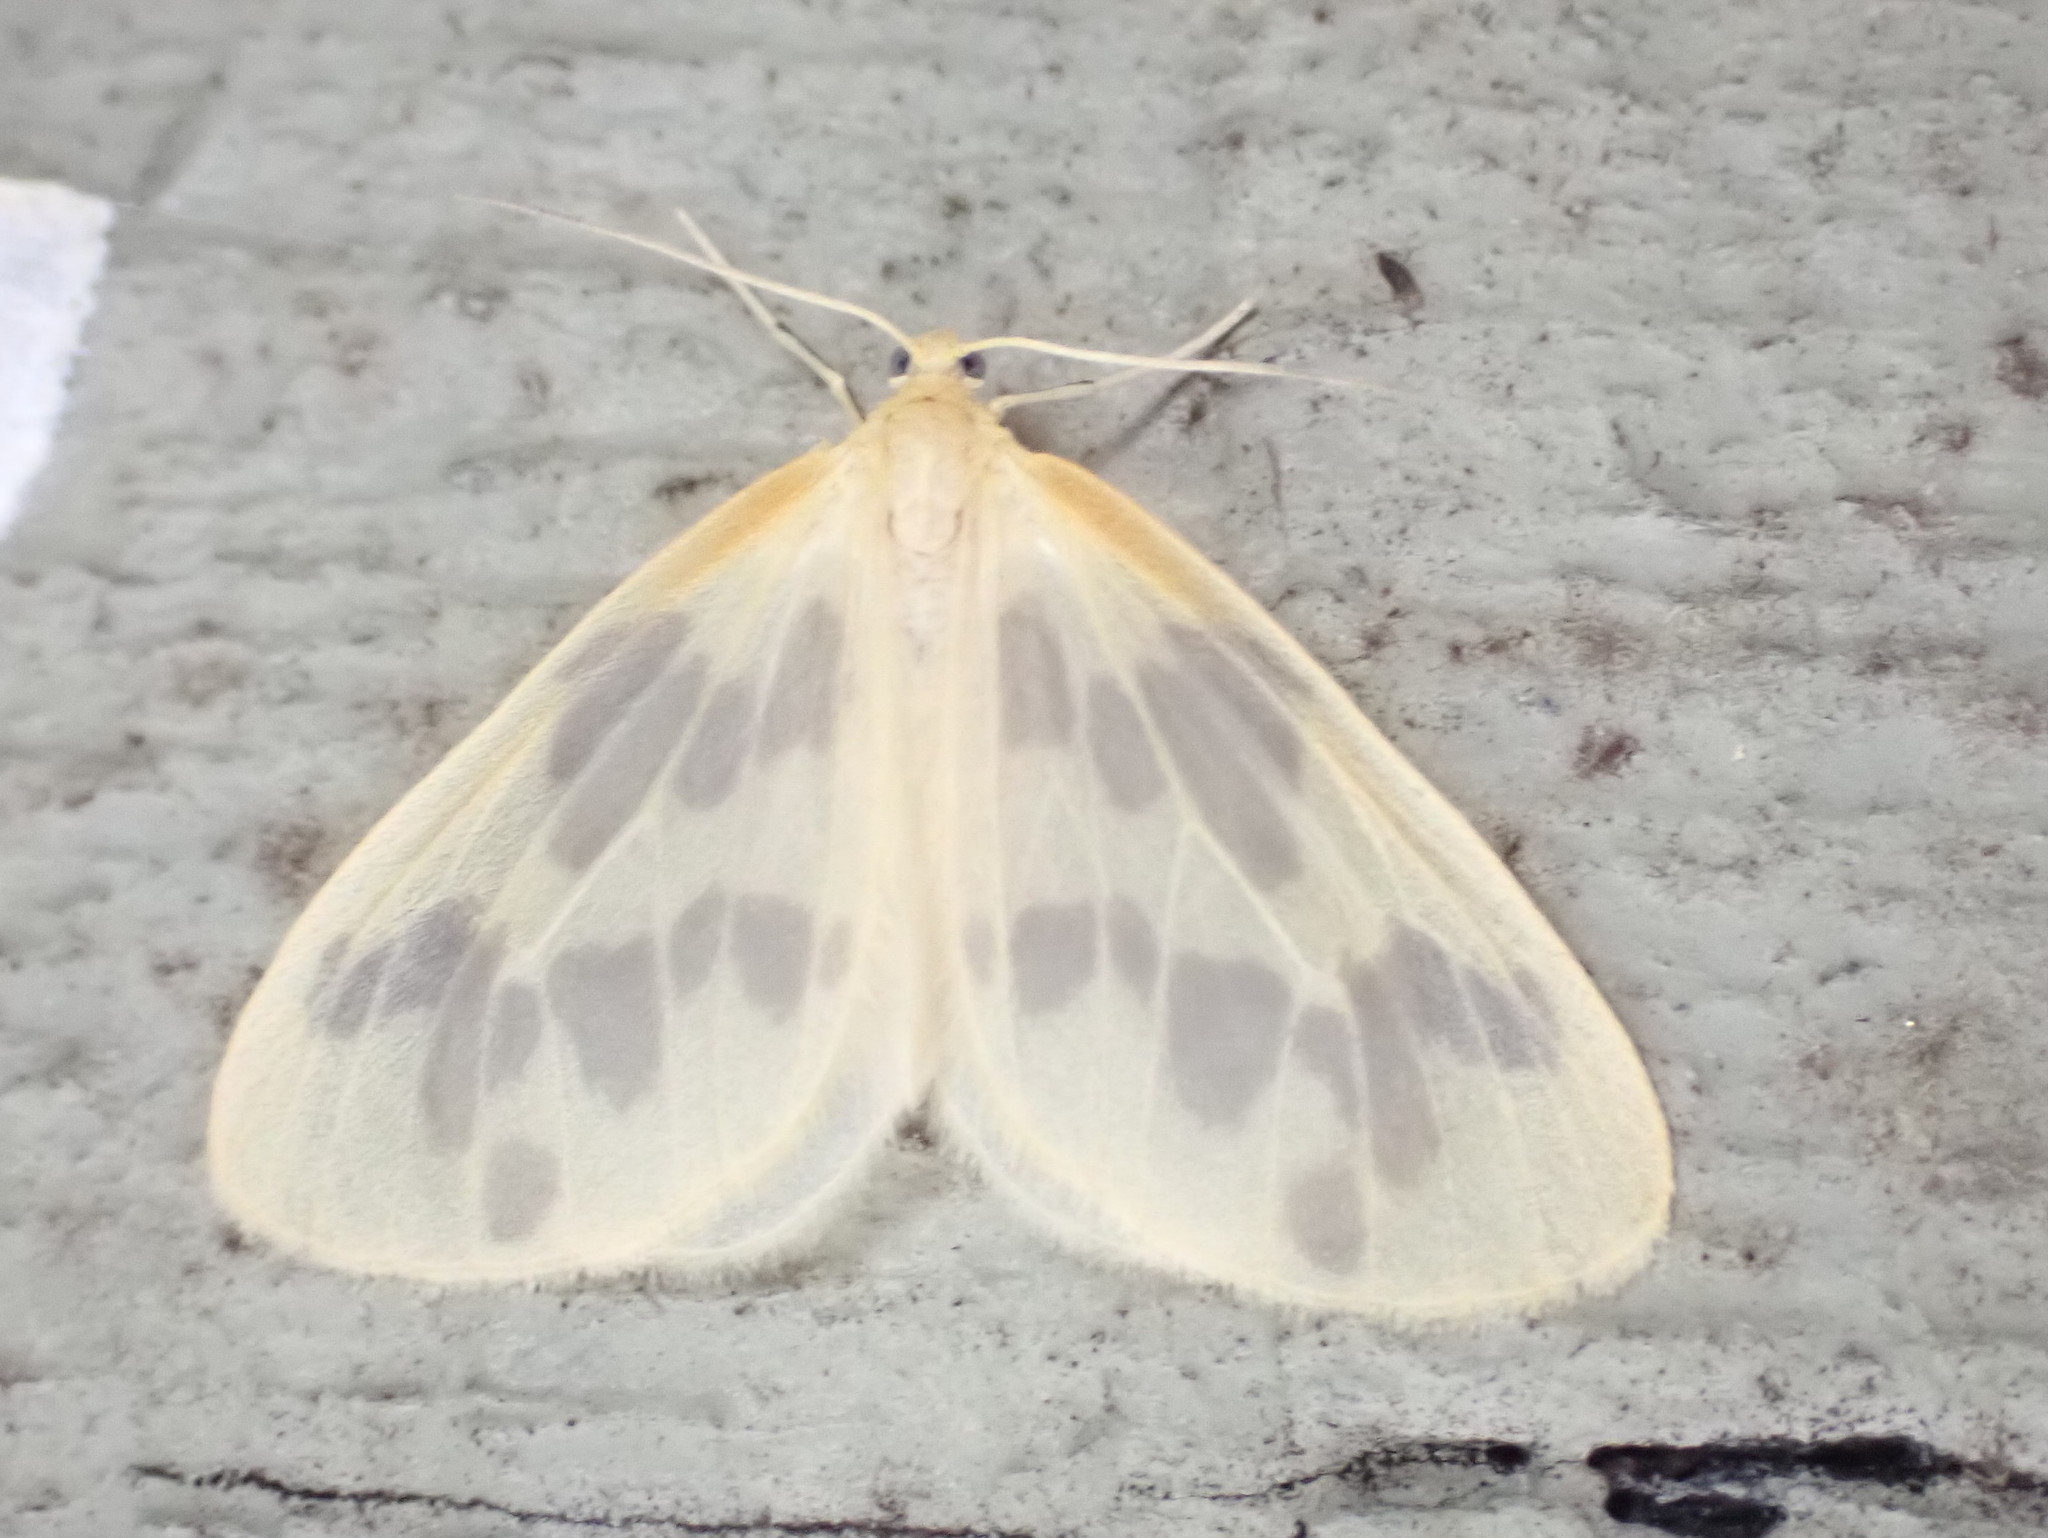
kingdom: Animalia
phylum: Arthropoda
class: Insecta
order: Lepidoptera
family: Geometridae
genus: Eubaphe
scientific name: Eubaphe mendica
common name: Beggar
